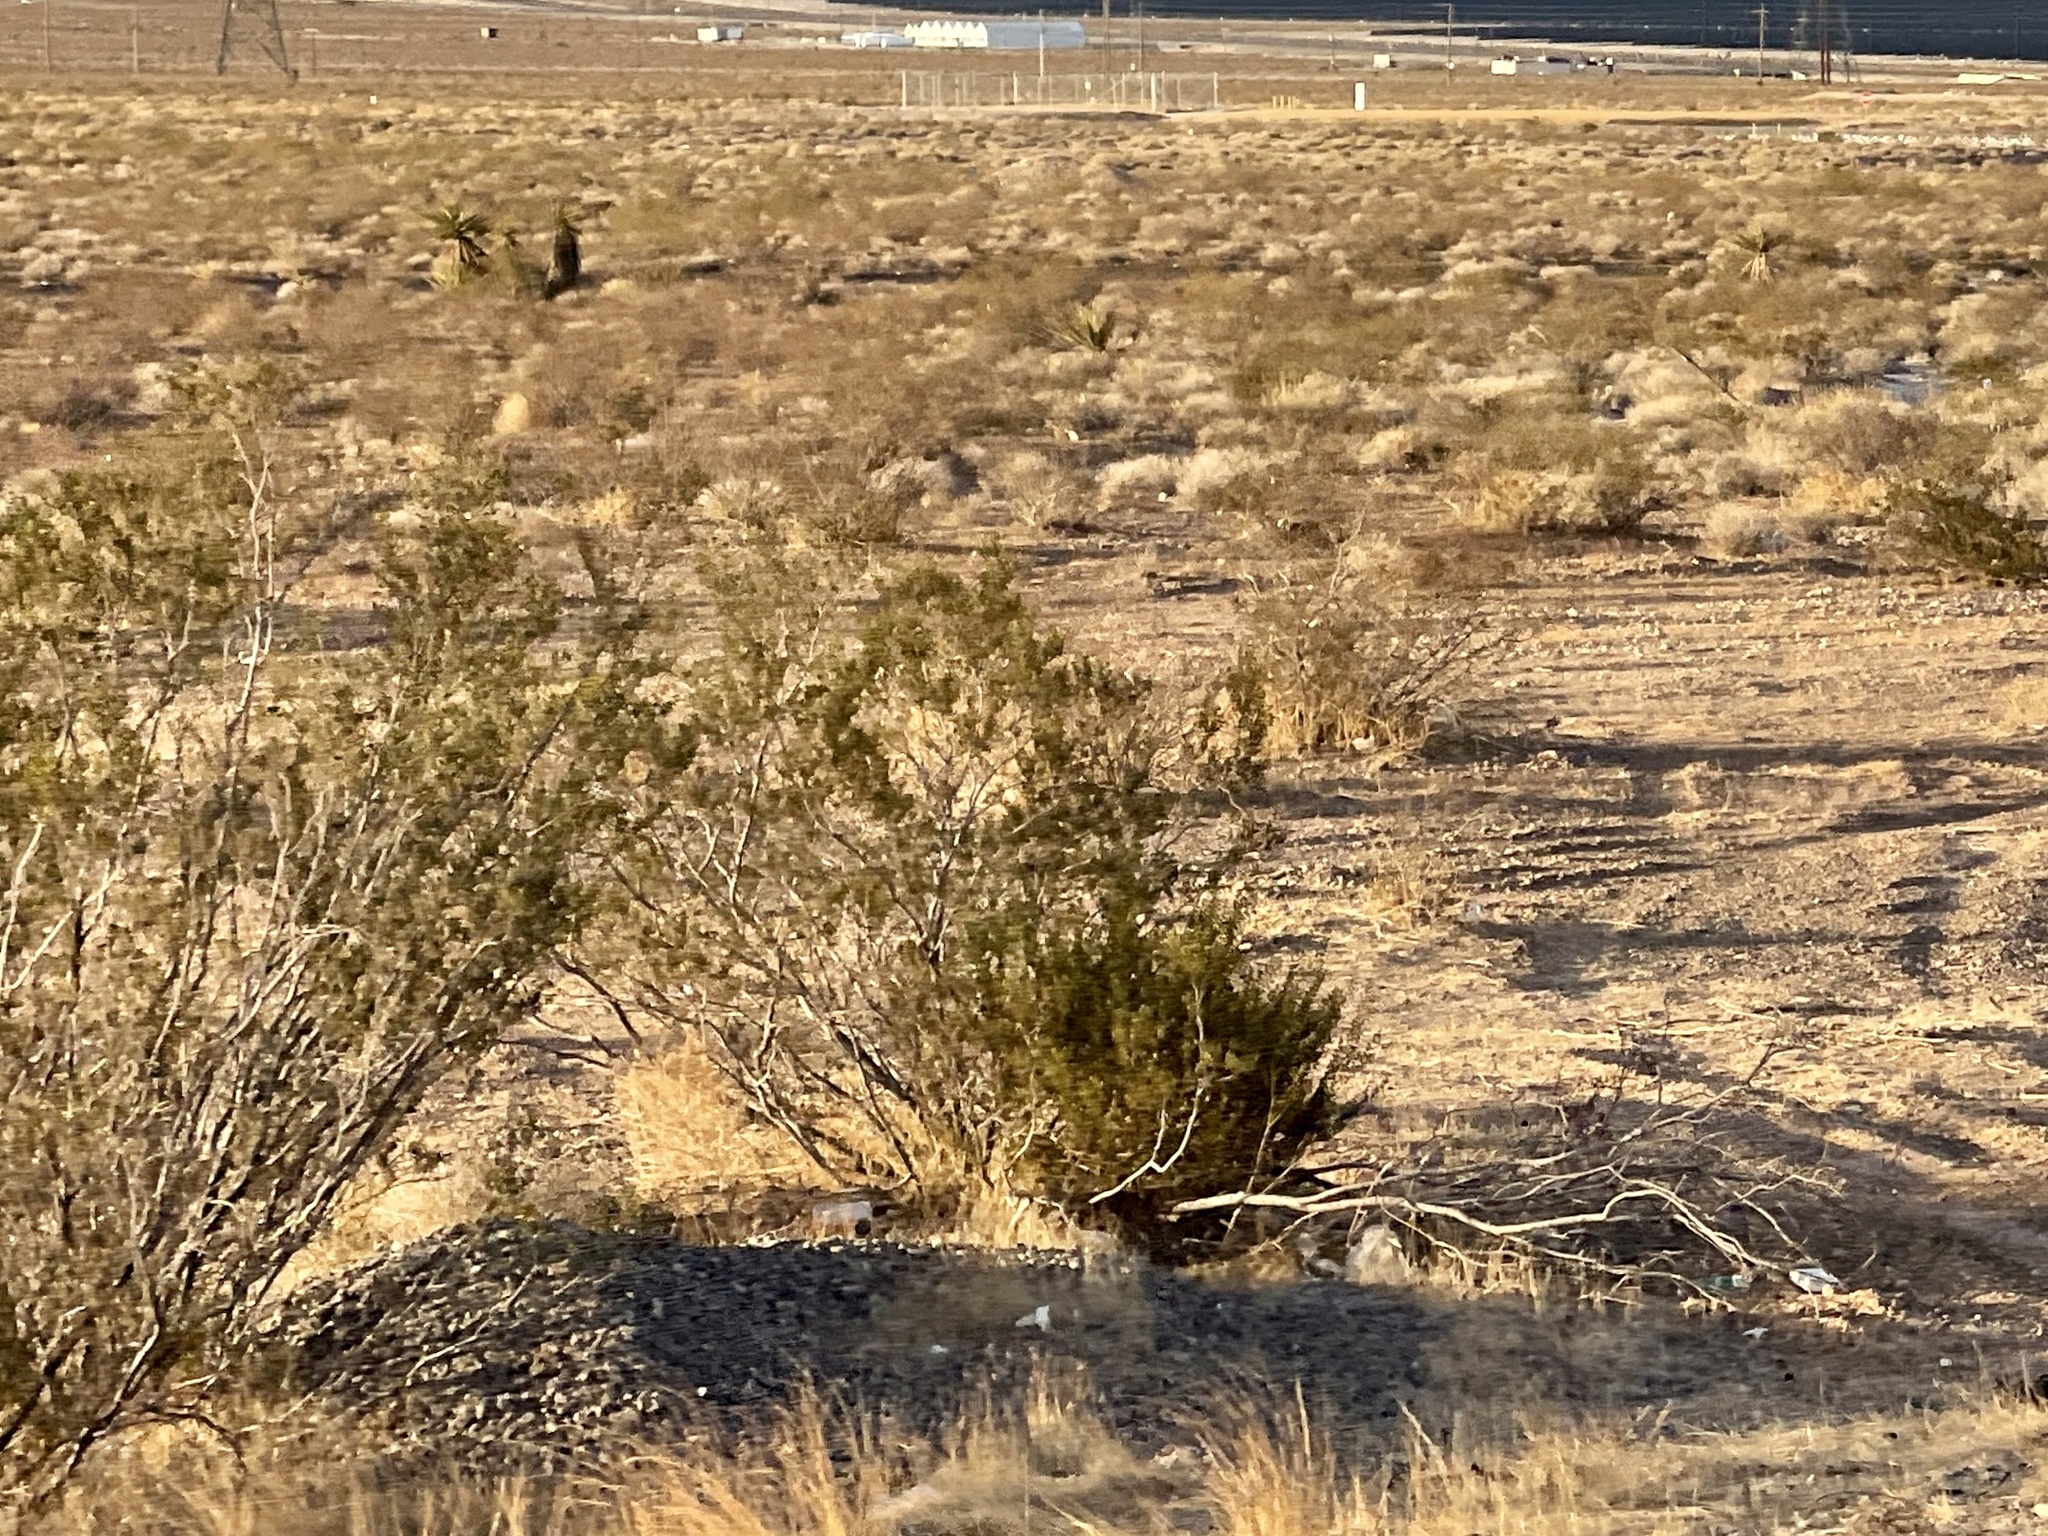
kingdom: Plantae
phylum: Tracheophyta
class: Magnoliopsida
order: Zygophyllales
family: Zygophyllaceae
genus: Larrea
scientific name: Larrea tridentata
